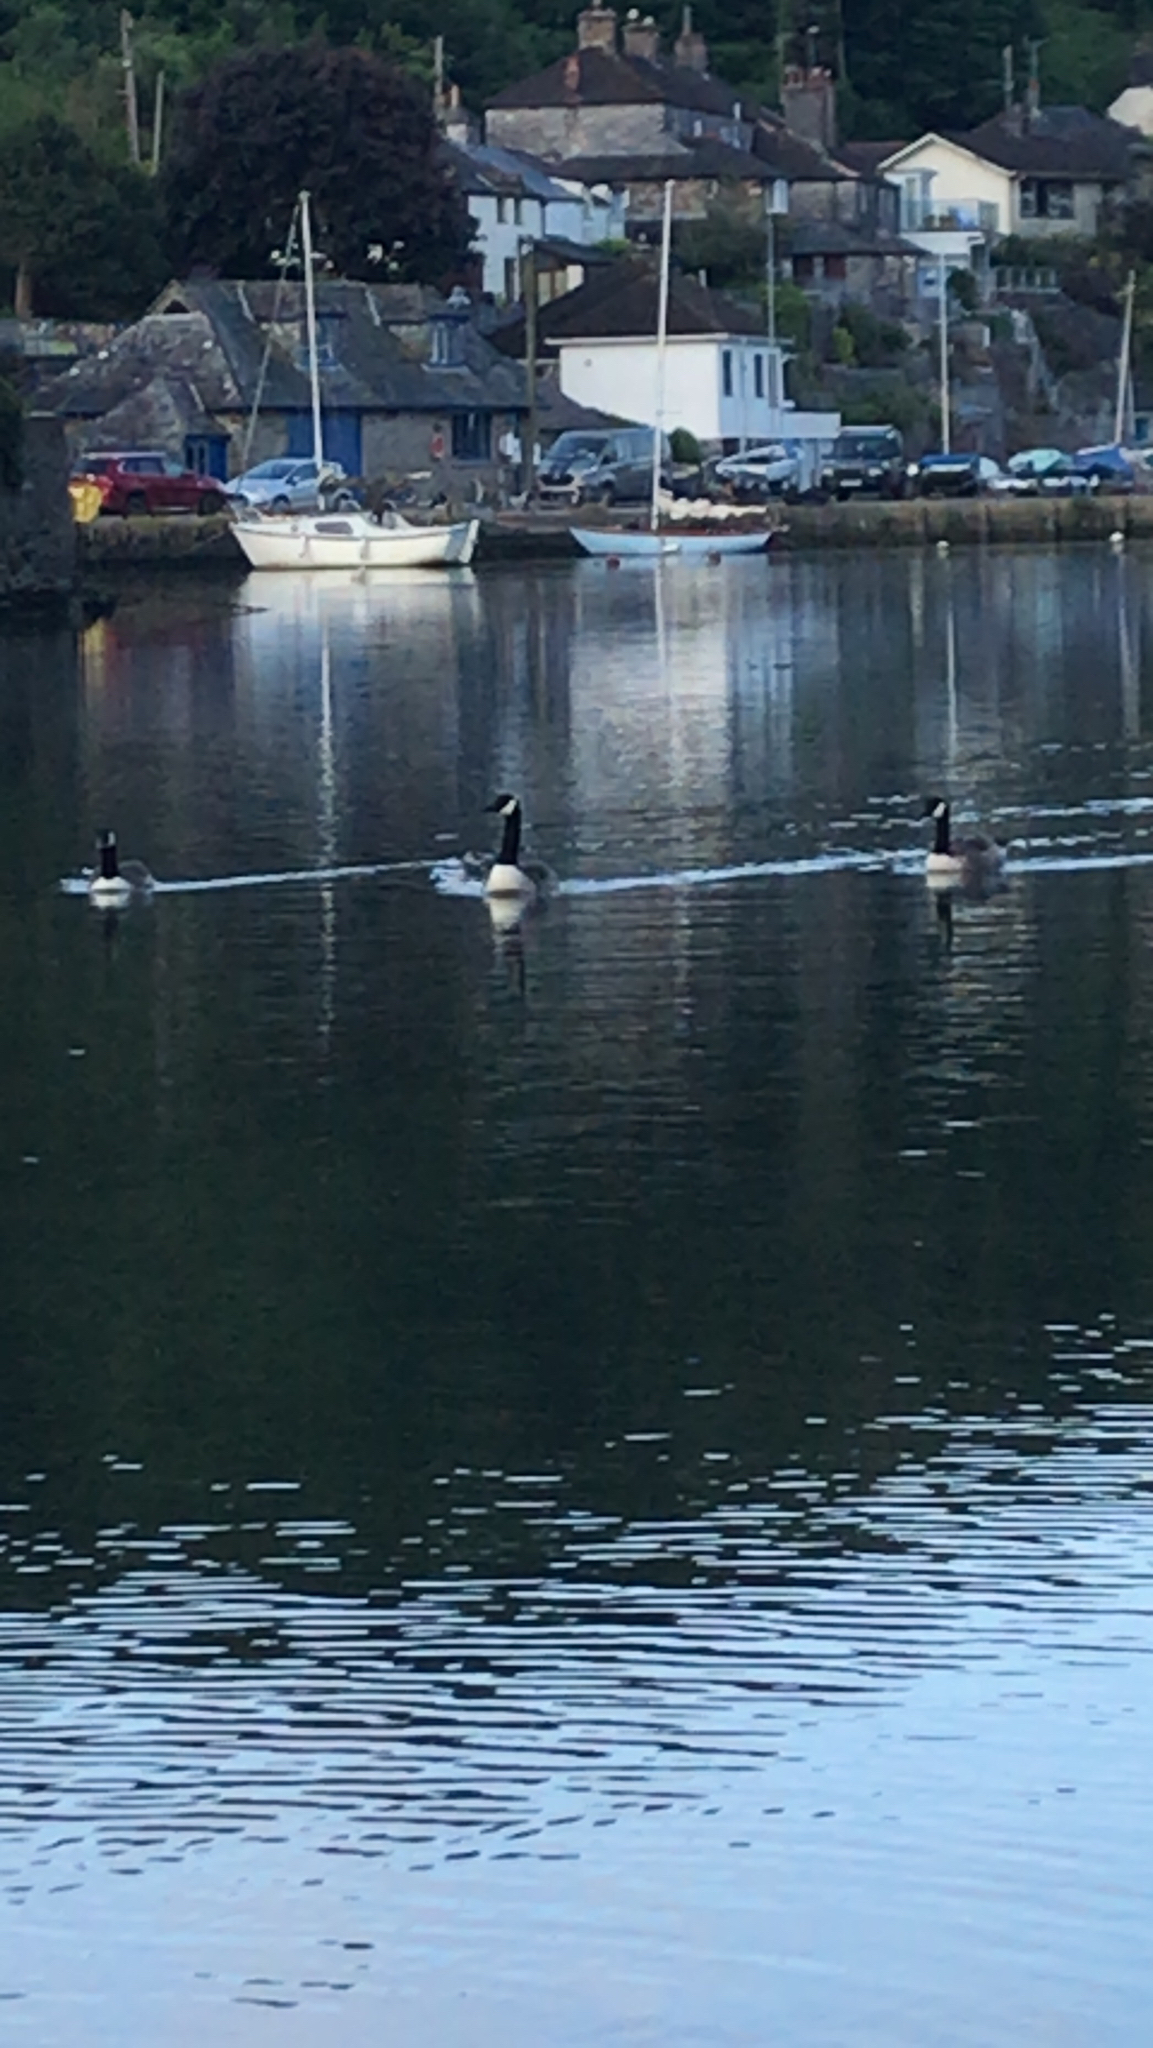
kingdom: Animalia
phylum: Chordata
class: Aves
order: Anseriformes
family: Anatidae
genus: Branta
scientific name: Branta canadensis
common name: Canada goose
